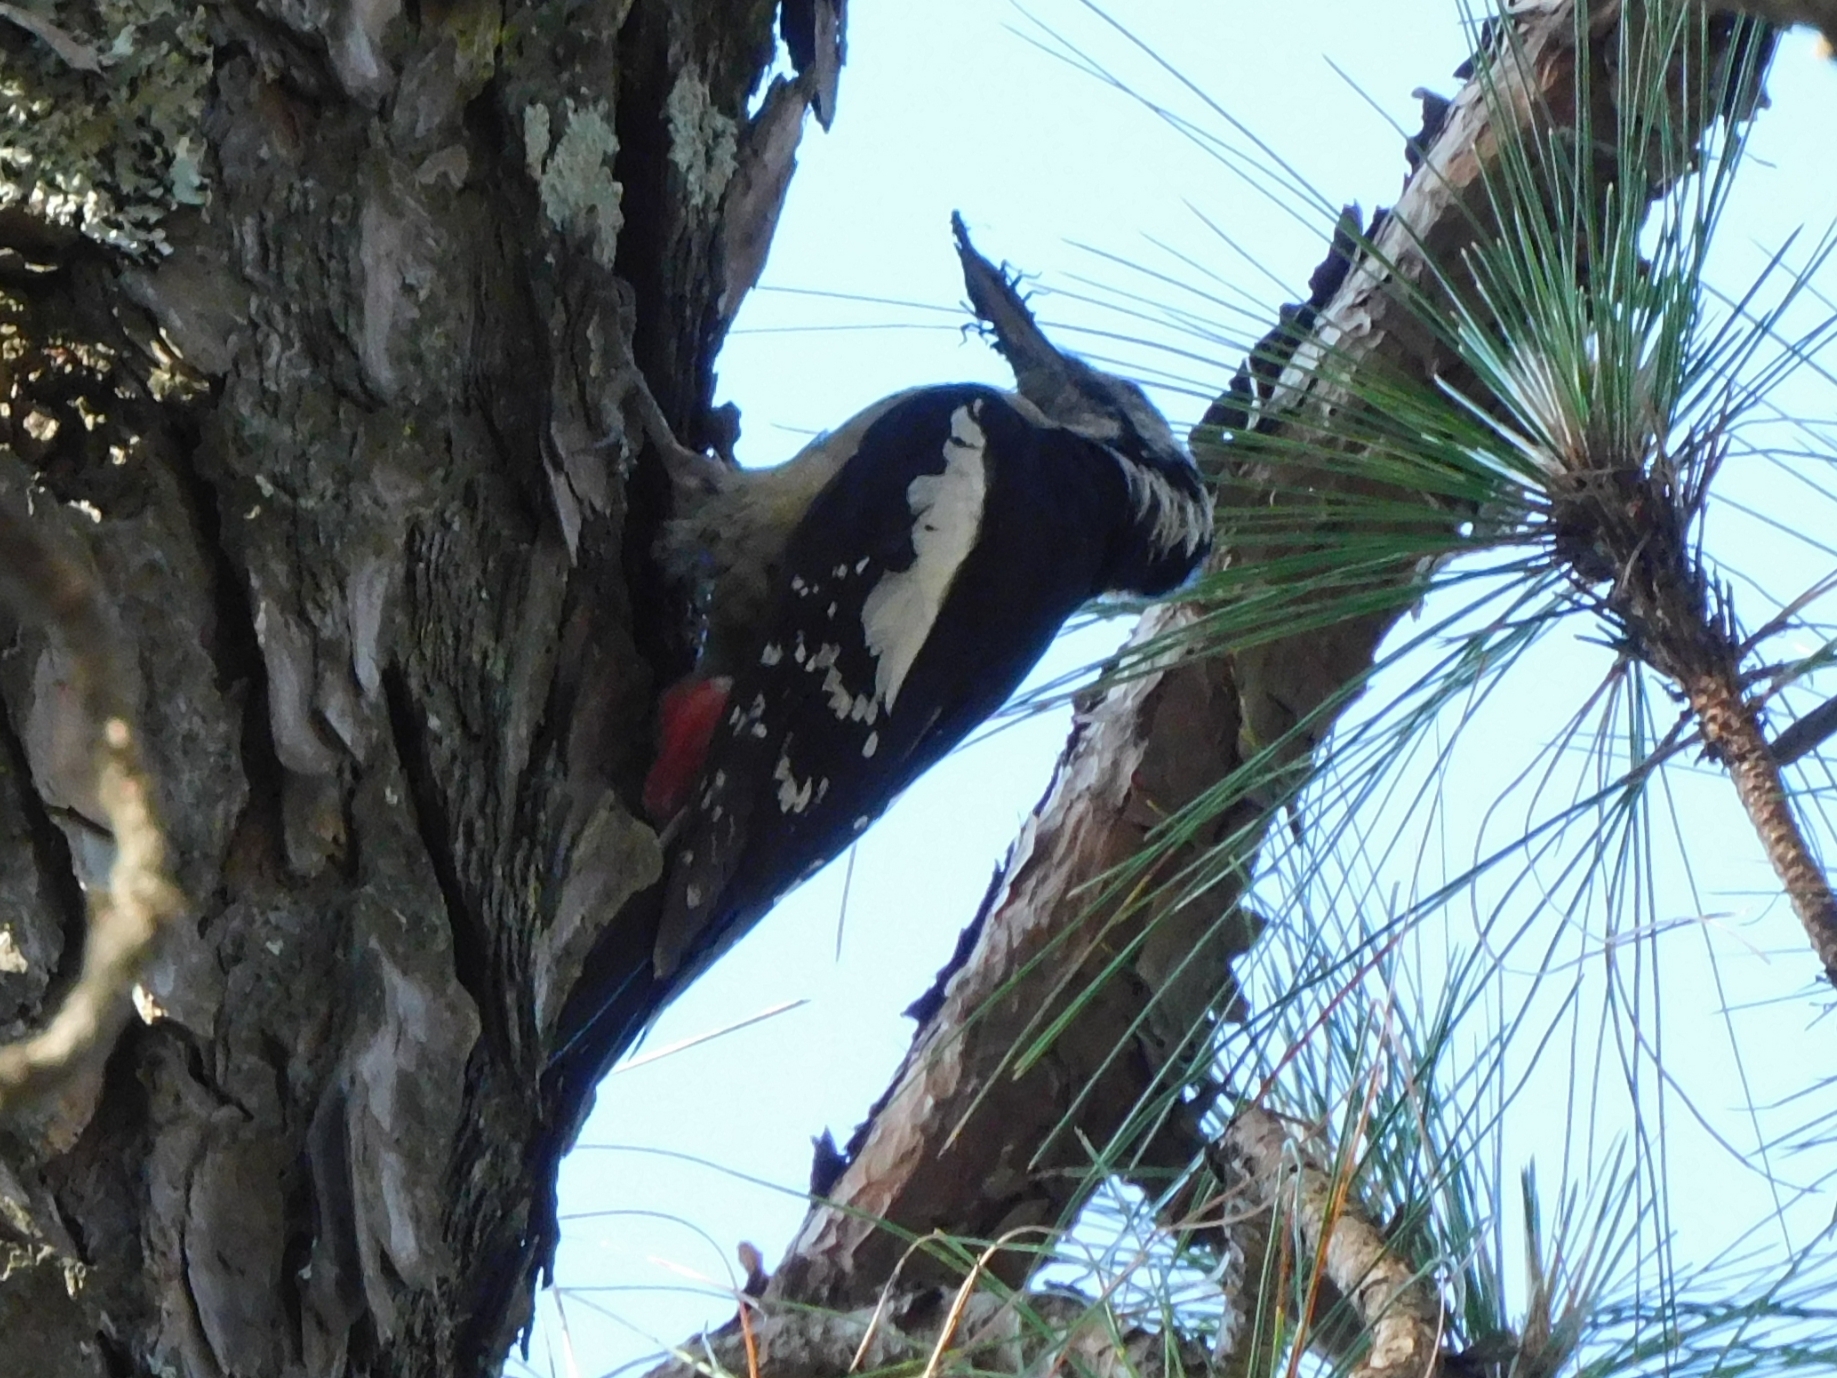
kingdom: Animalia
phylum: Chordata
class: Aves
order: Piciformes
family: Picidae
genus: Dendrocopos
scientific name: Dendrocopos himalayensis
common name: Himalayan woodpecker
